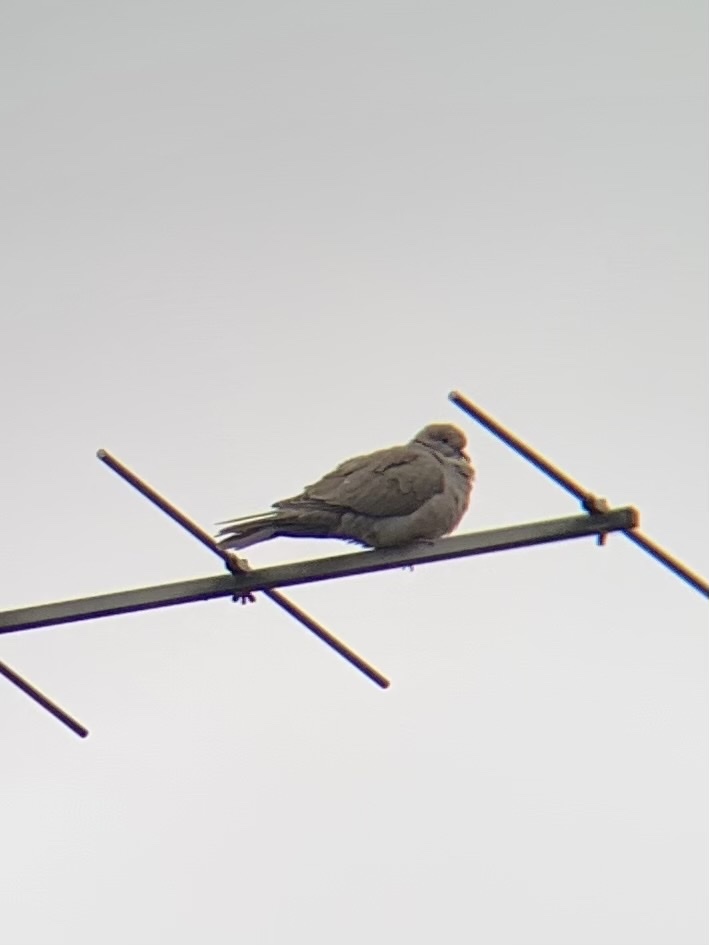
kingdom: Animalia
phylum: Chordata
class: Aves
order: Columbiformes
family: Columbidae
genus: Streptopelia
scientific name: Streptopelia decaocto
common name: Eurasian collared dove
